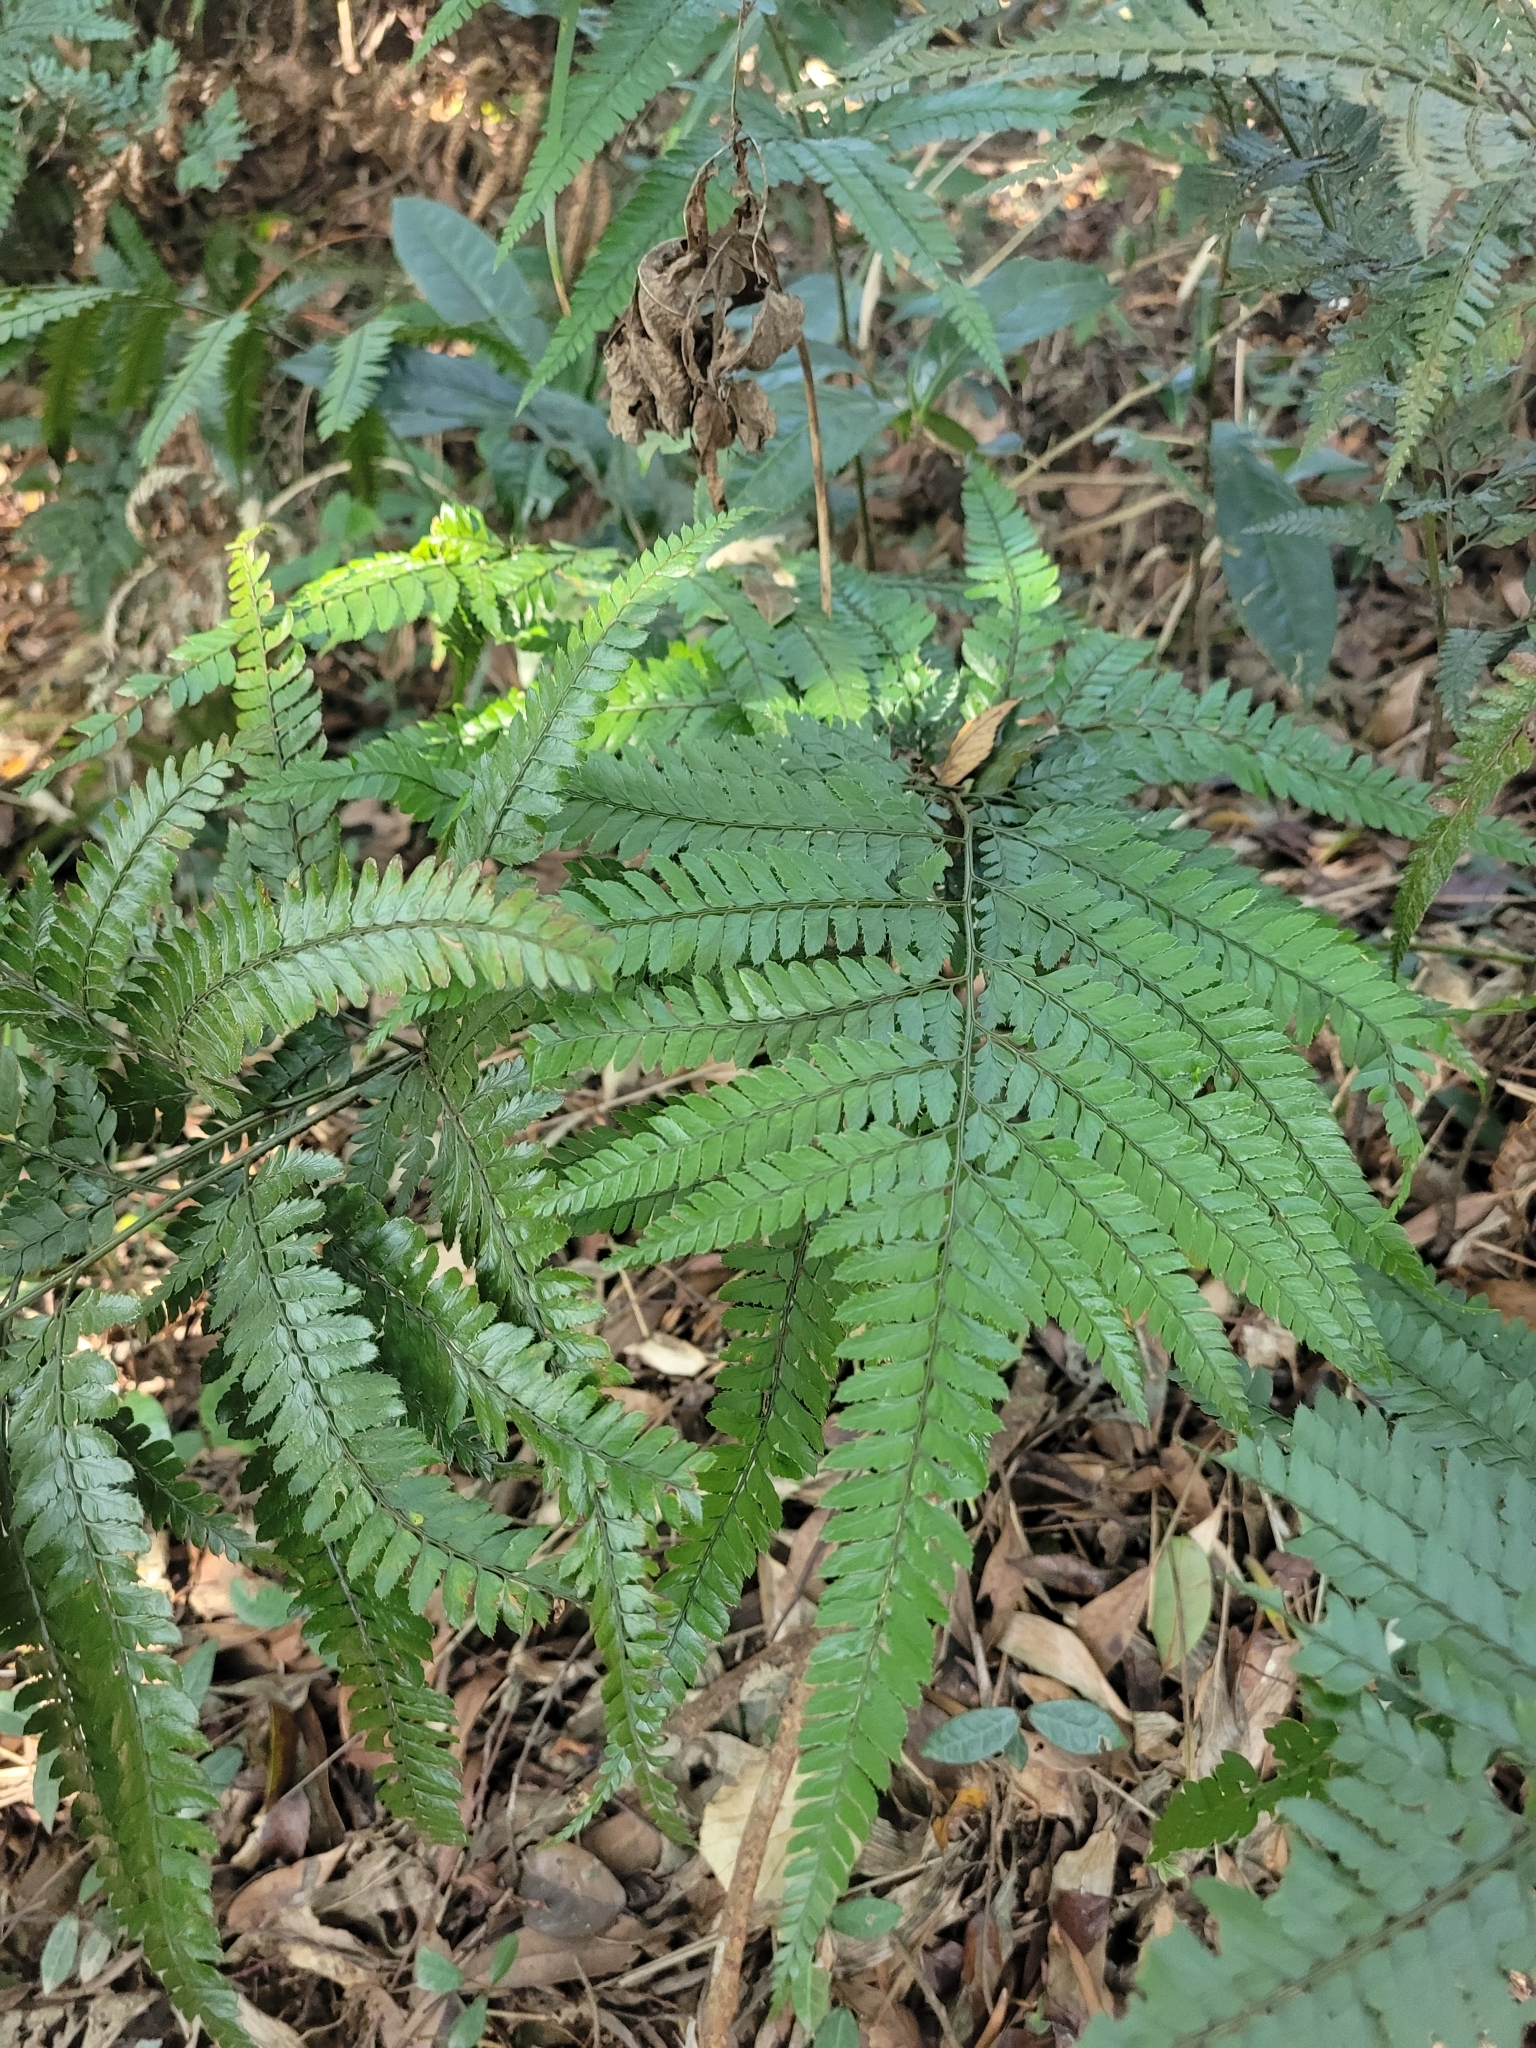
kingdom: Plantae
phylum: Tracheophyta
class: Polypodiopsida
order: Polypodiales
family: Dryopteridaceae
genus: Arachniodes
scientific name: Arachniodes aristata
